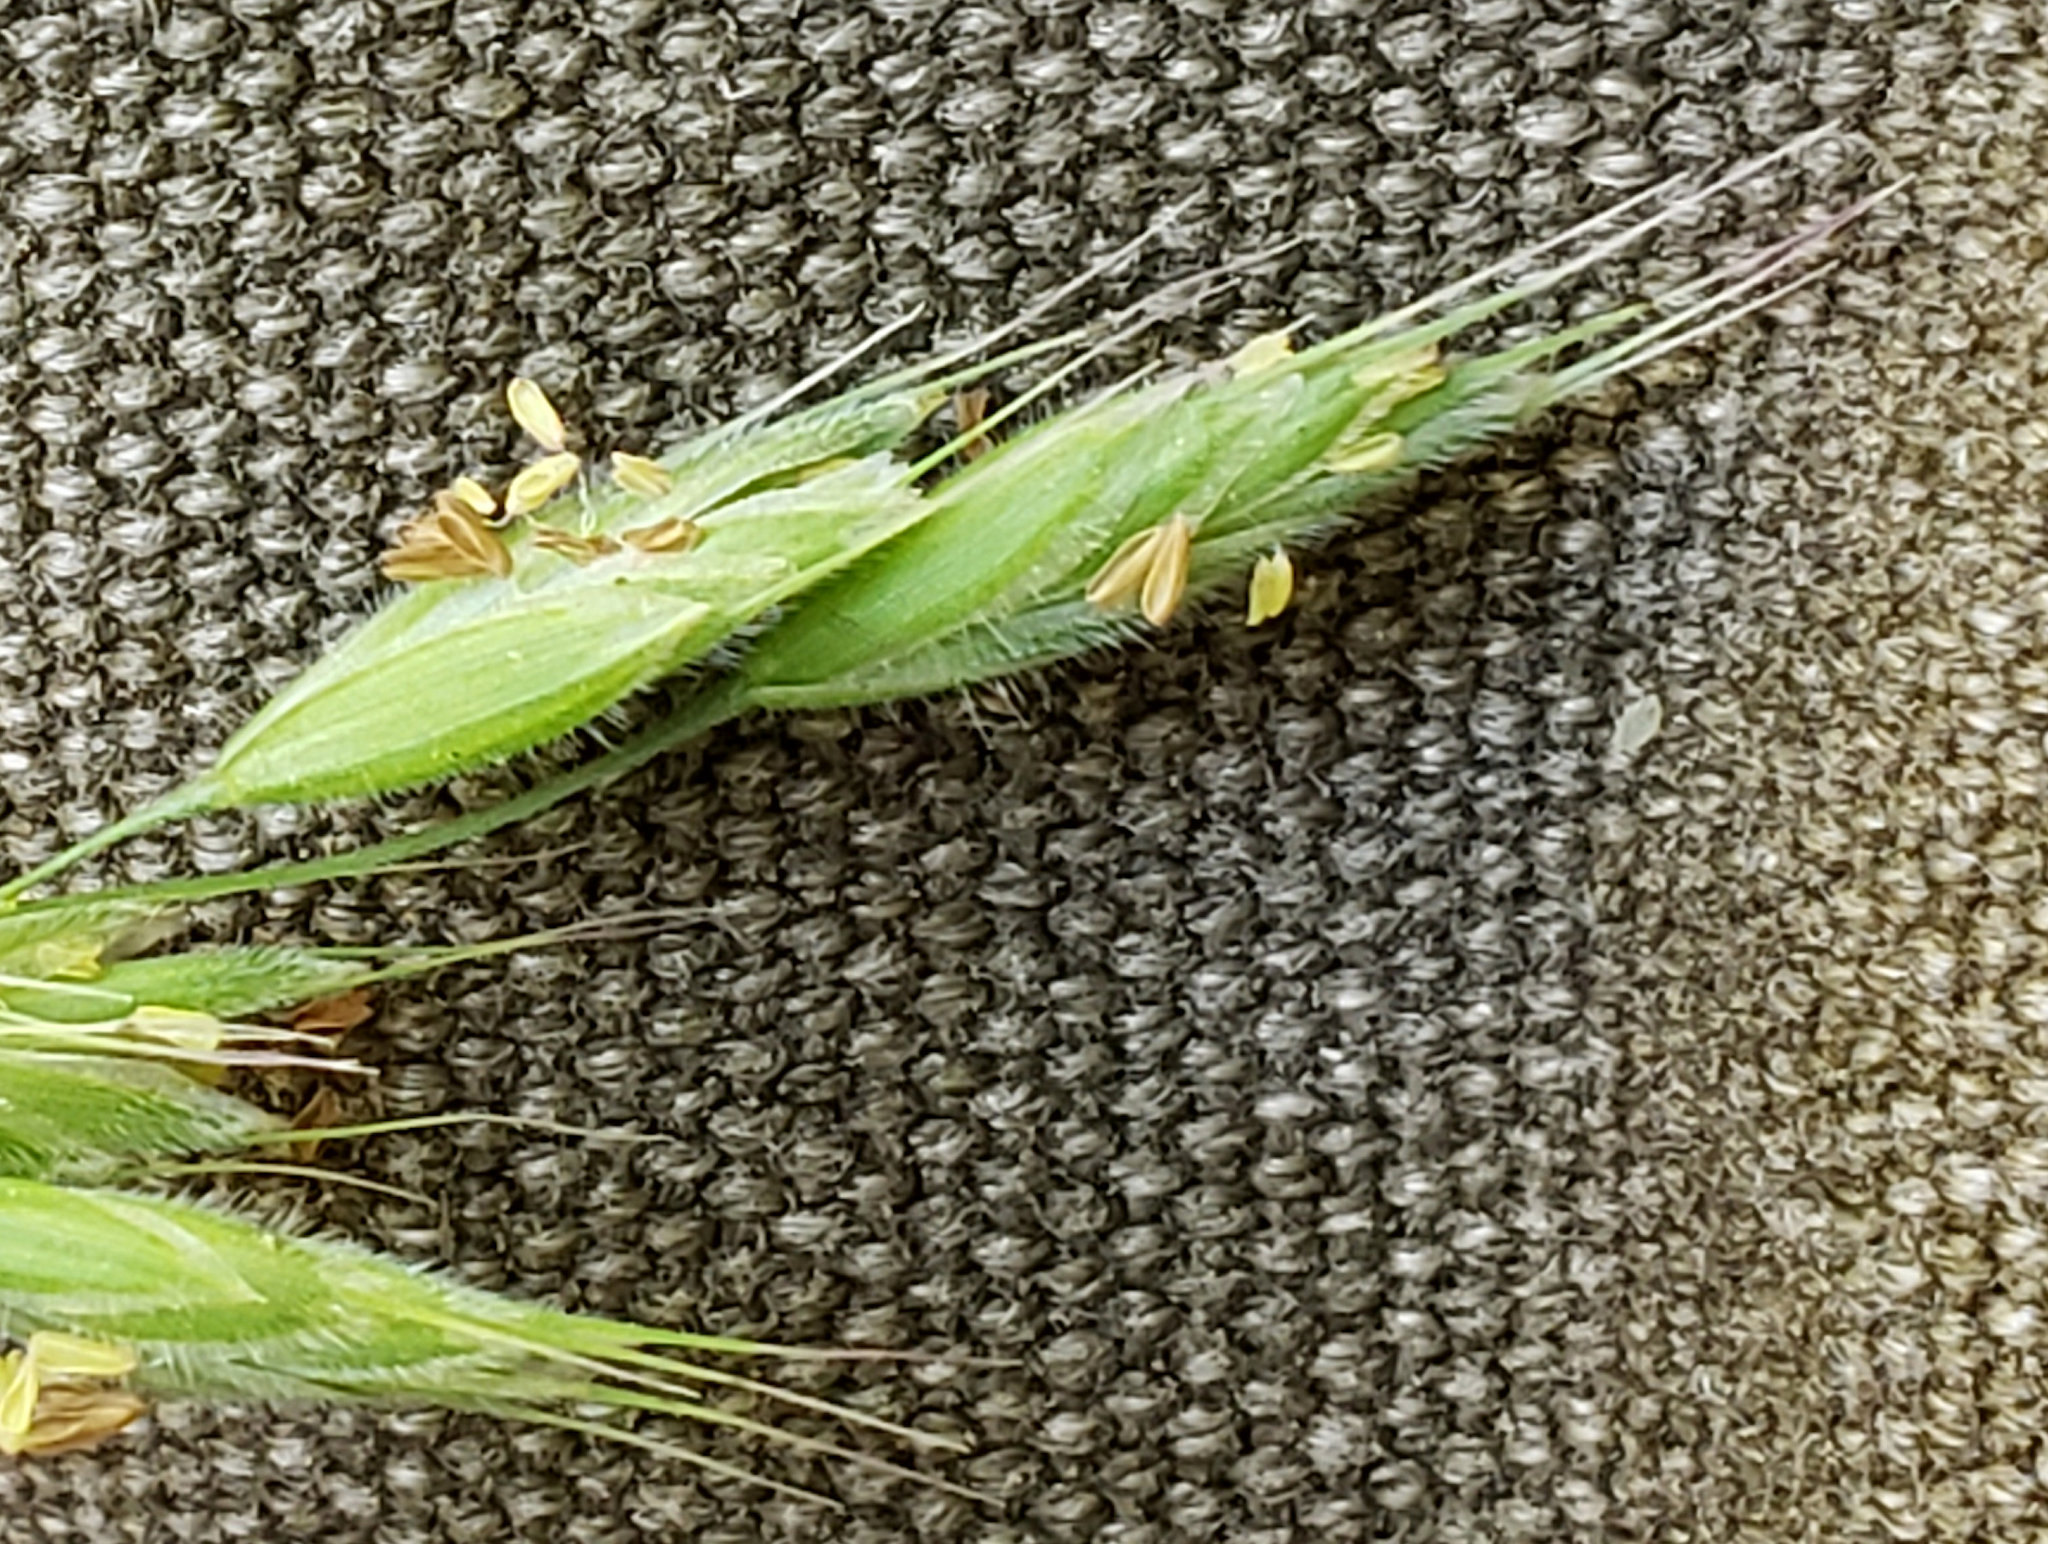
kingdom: Plantae
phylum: Tracheophyta
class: Liliopsida
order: Poales
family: Poaceae
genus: Bromus
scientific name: Bromus hordeaceus
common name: Soft brome
